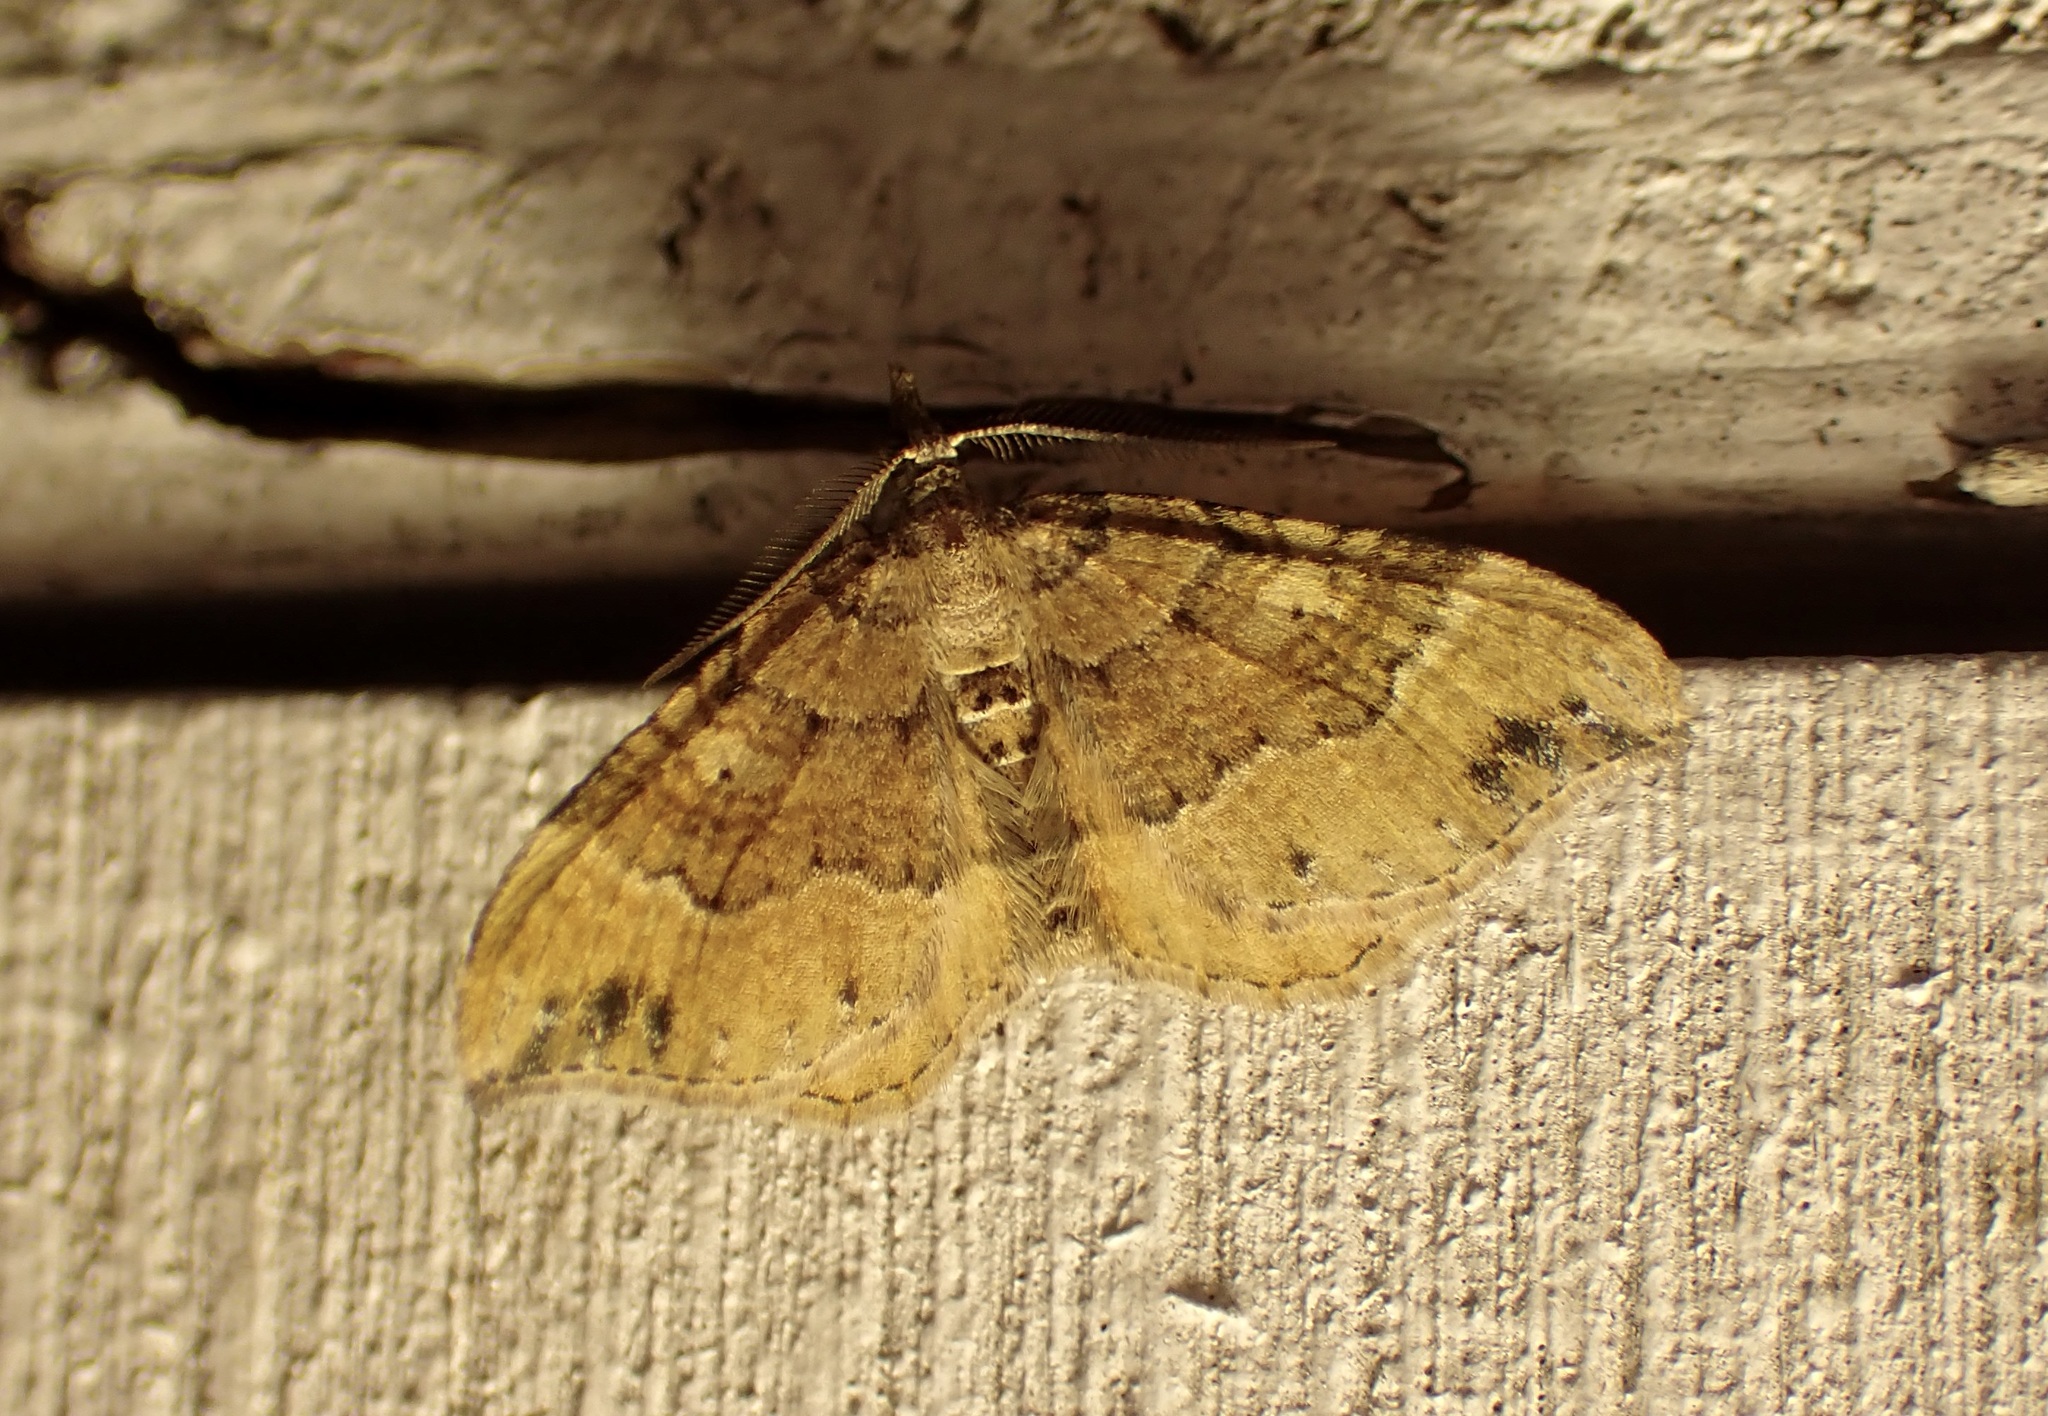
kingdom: Animalia
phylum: Arthropoda
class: Insecta
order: Lepidoptera
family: Geometridae
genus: Homodotis
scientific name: Homodotis megaspilata
